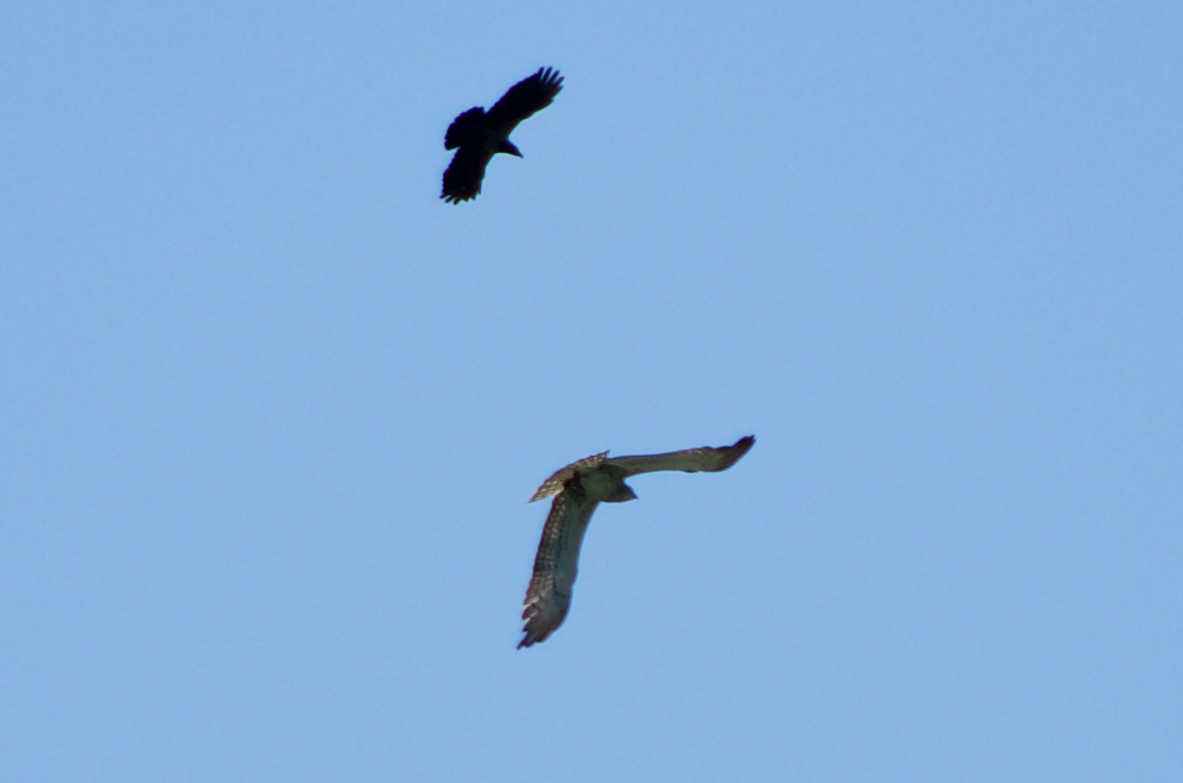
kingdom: Animalia
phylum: Chordata
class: Aves
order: Passeriformes
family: Corvidae
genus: Corvus
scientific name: Corvus cornix
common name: Hooded crow
